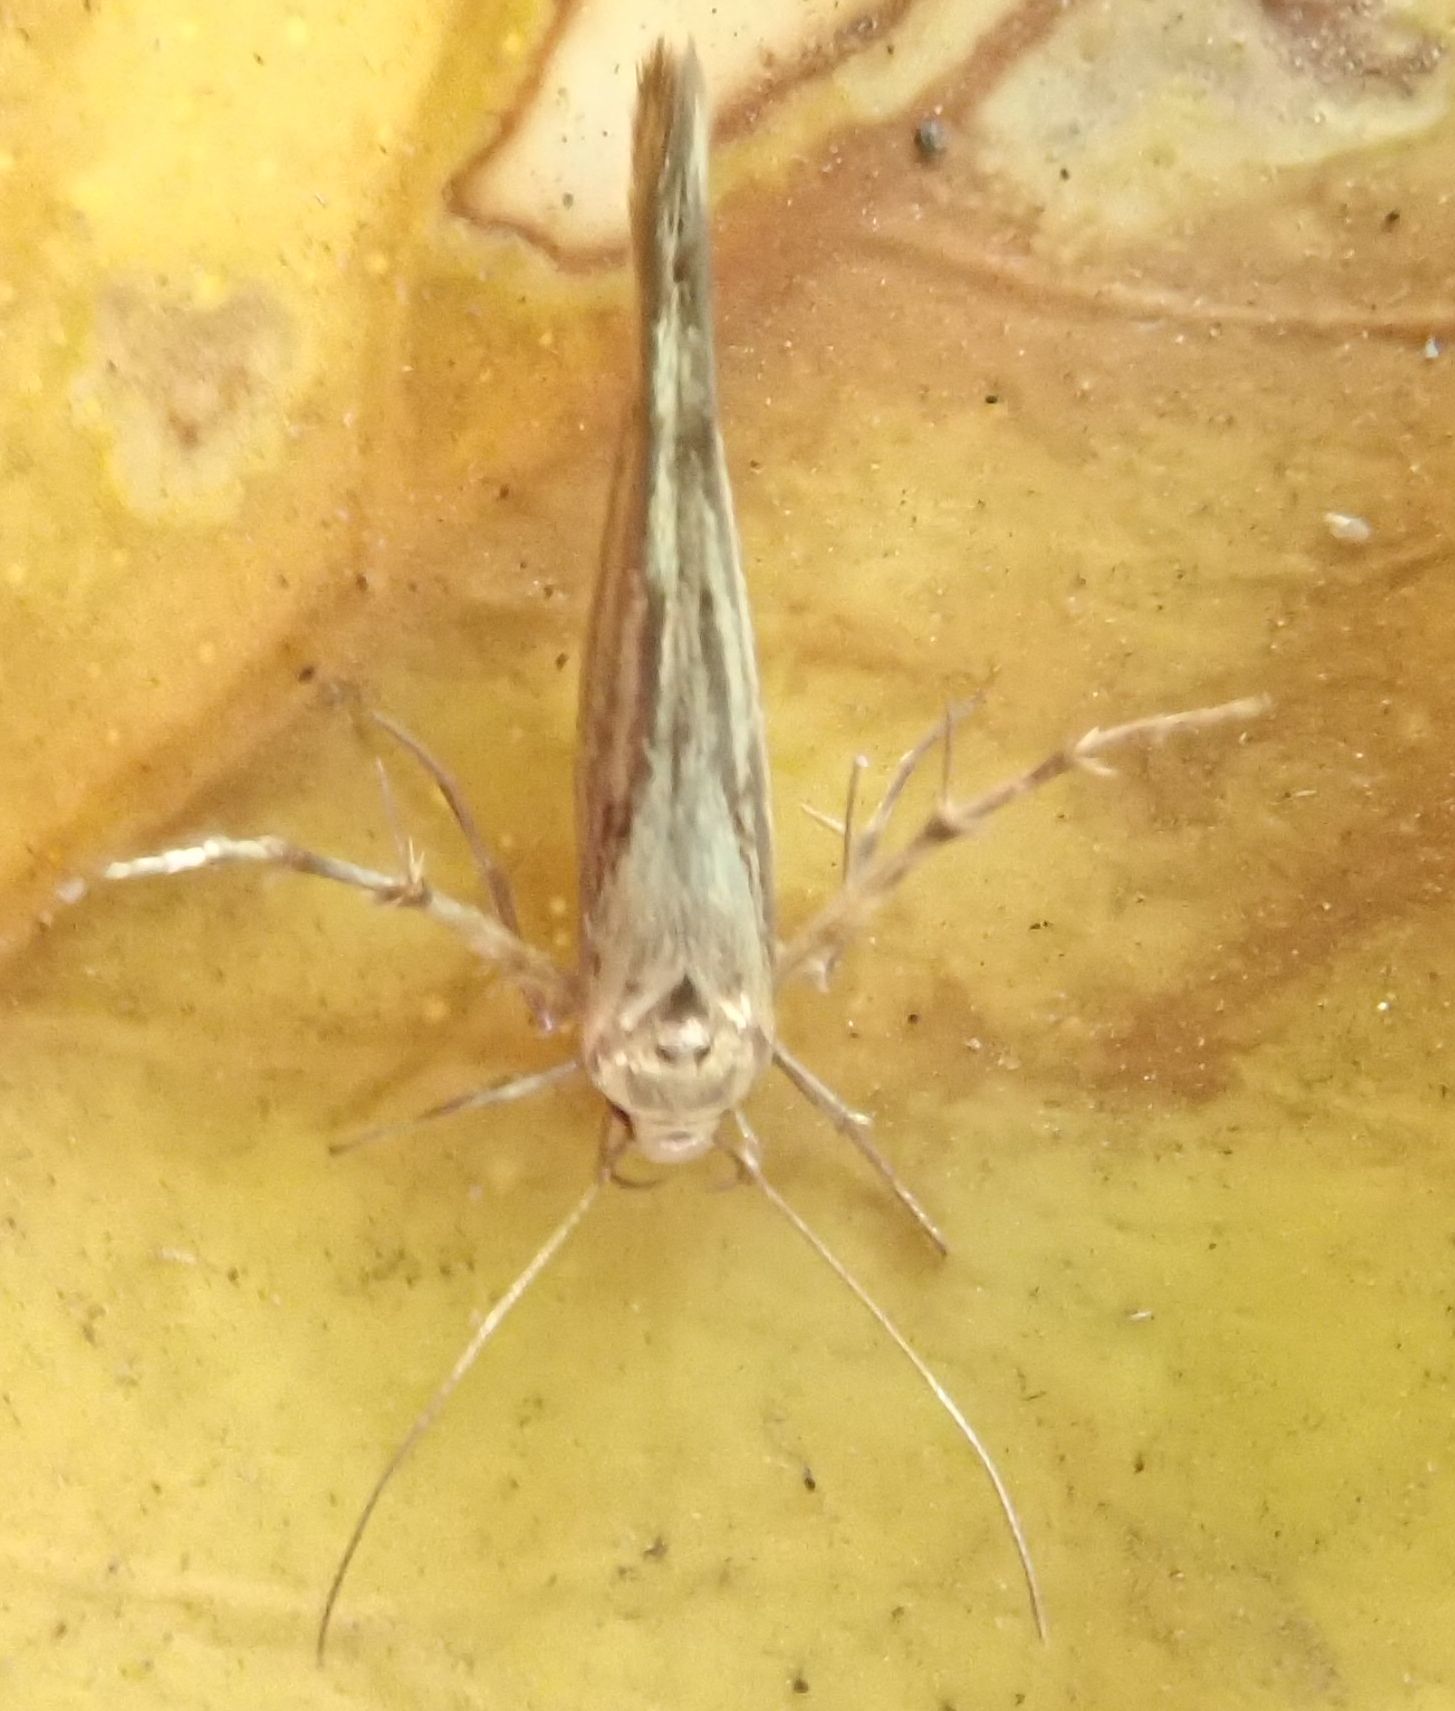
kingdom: Animalia
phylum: Arthropoda
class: Insecta
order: Lepidoptera
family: Stathmopodidae
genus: Stathmopoda
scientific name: Stathmopoda plumbiflua
